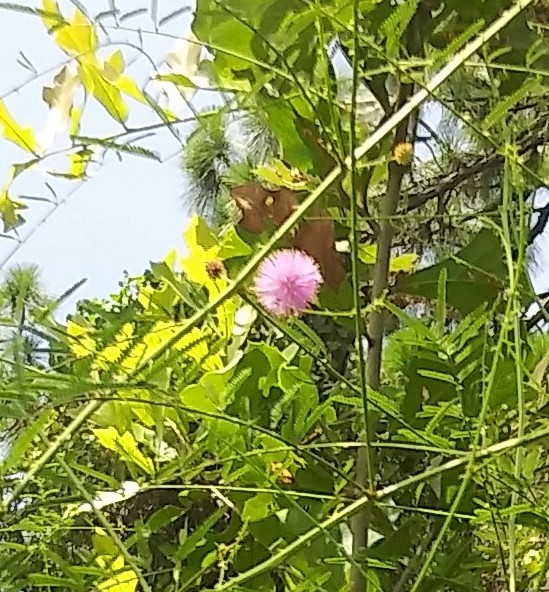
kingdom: Plantae
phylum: Tracheophyta
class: Magnoliopsida
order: Fabales
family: Fabaceae
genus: Mimosa
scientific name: Mimosa floridana
